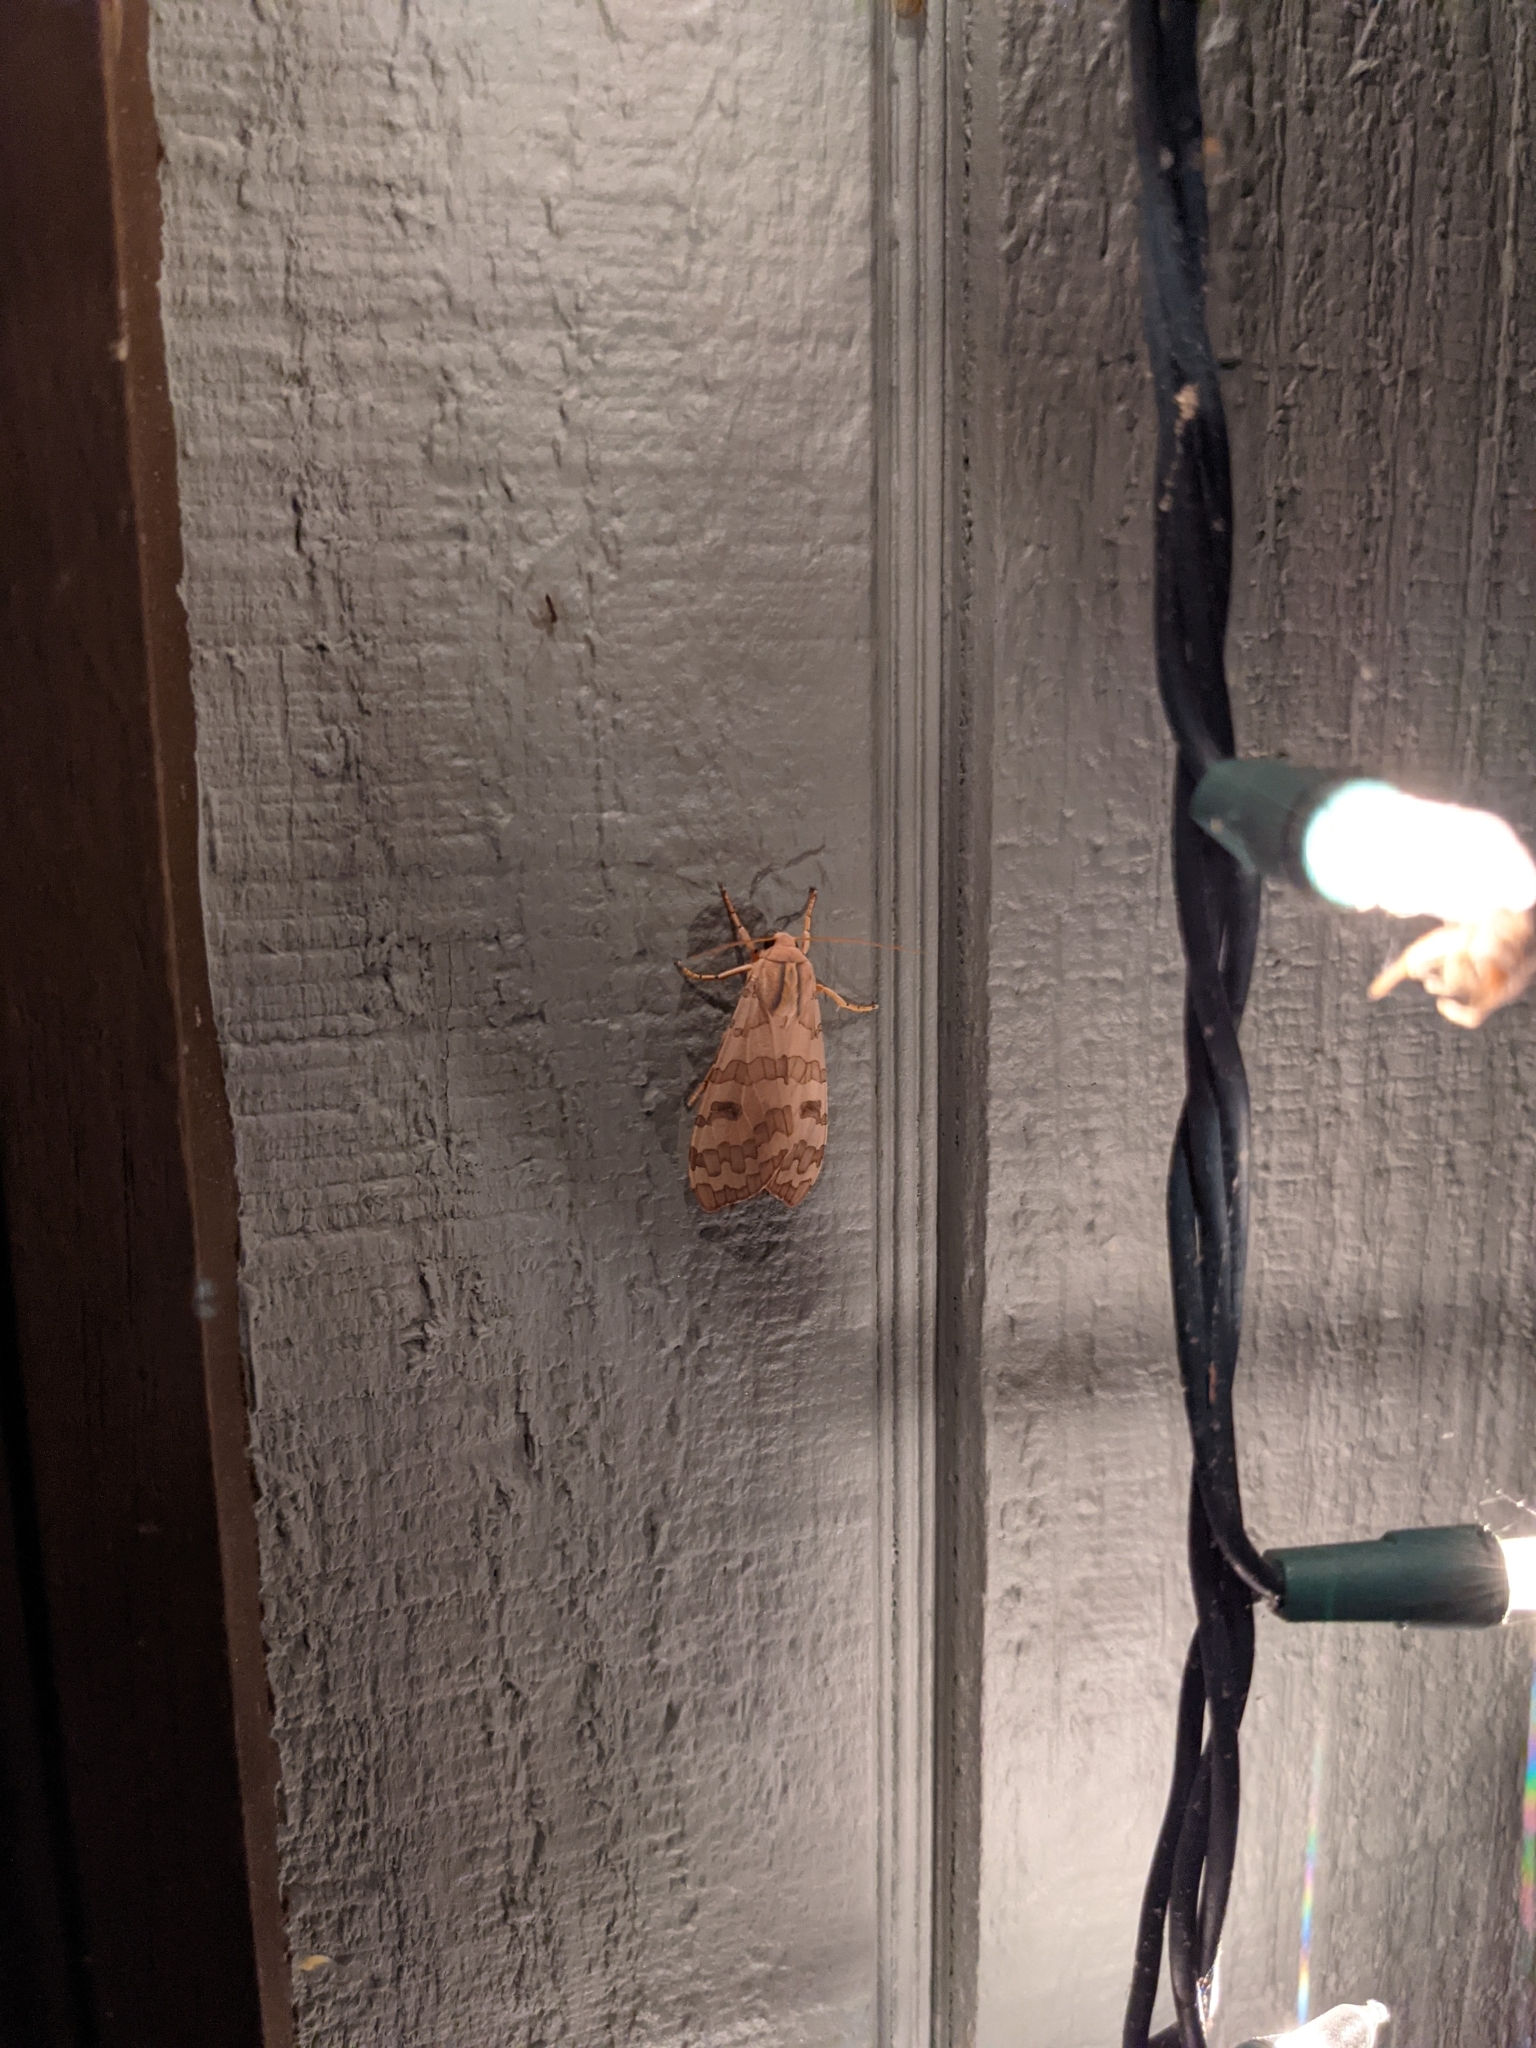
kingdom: Animalia
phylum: Arthropoda
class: Insecta
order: Lepidoptera
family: Erebidae
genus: Halysidota
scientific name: Halysidota
